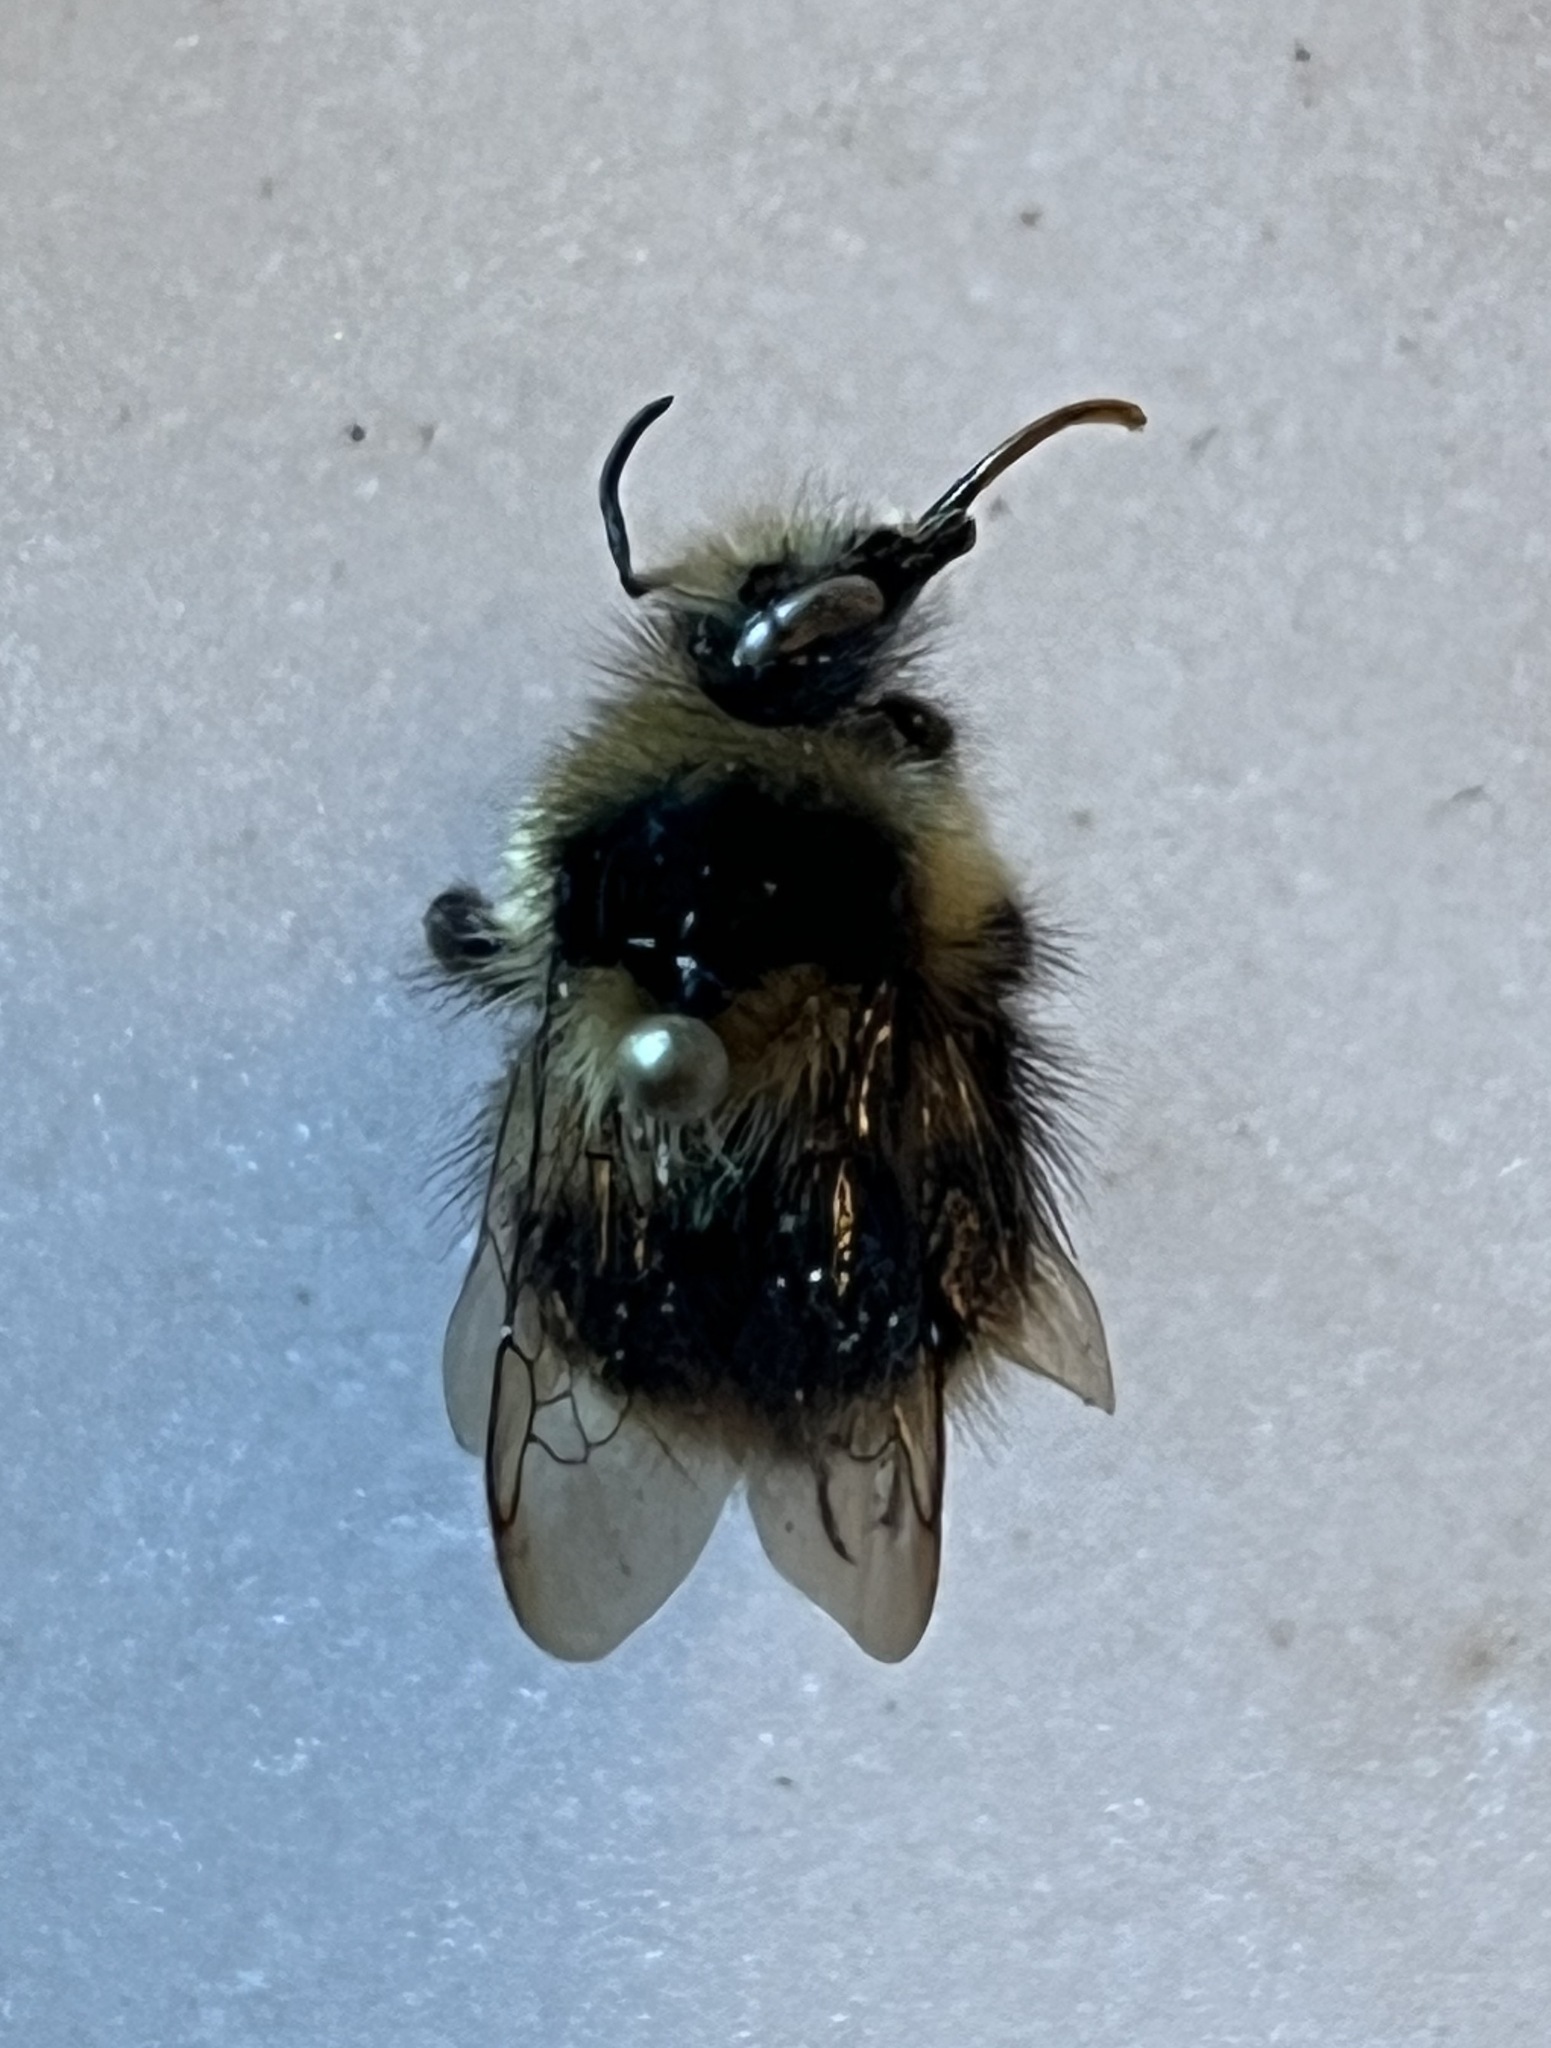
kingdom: Animalia
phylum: Arthropoda
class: Insecta
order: Hymenoptera
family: Apidae
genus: Bombus
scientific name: Bombus melanopygus
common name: Black tail bumble bee
